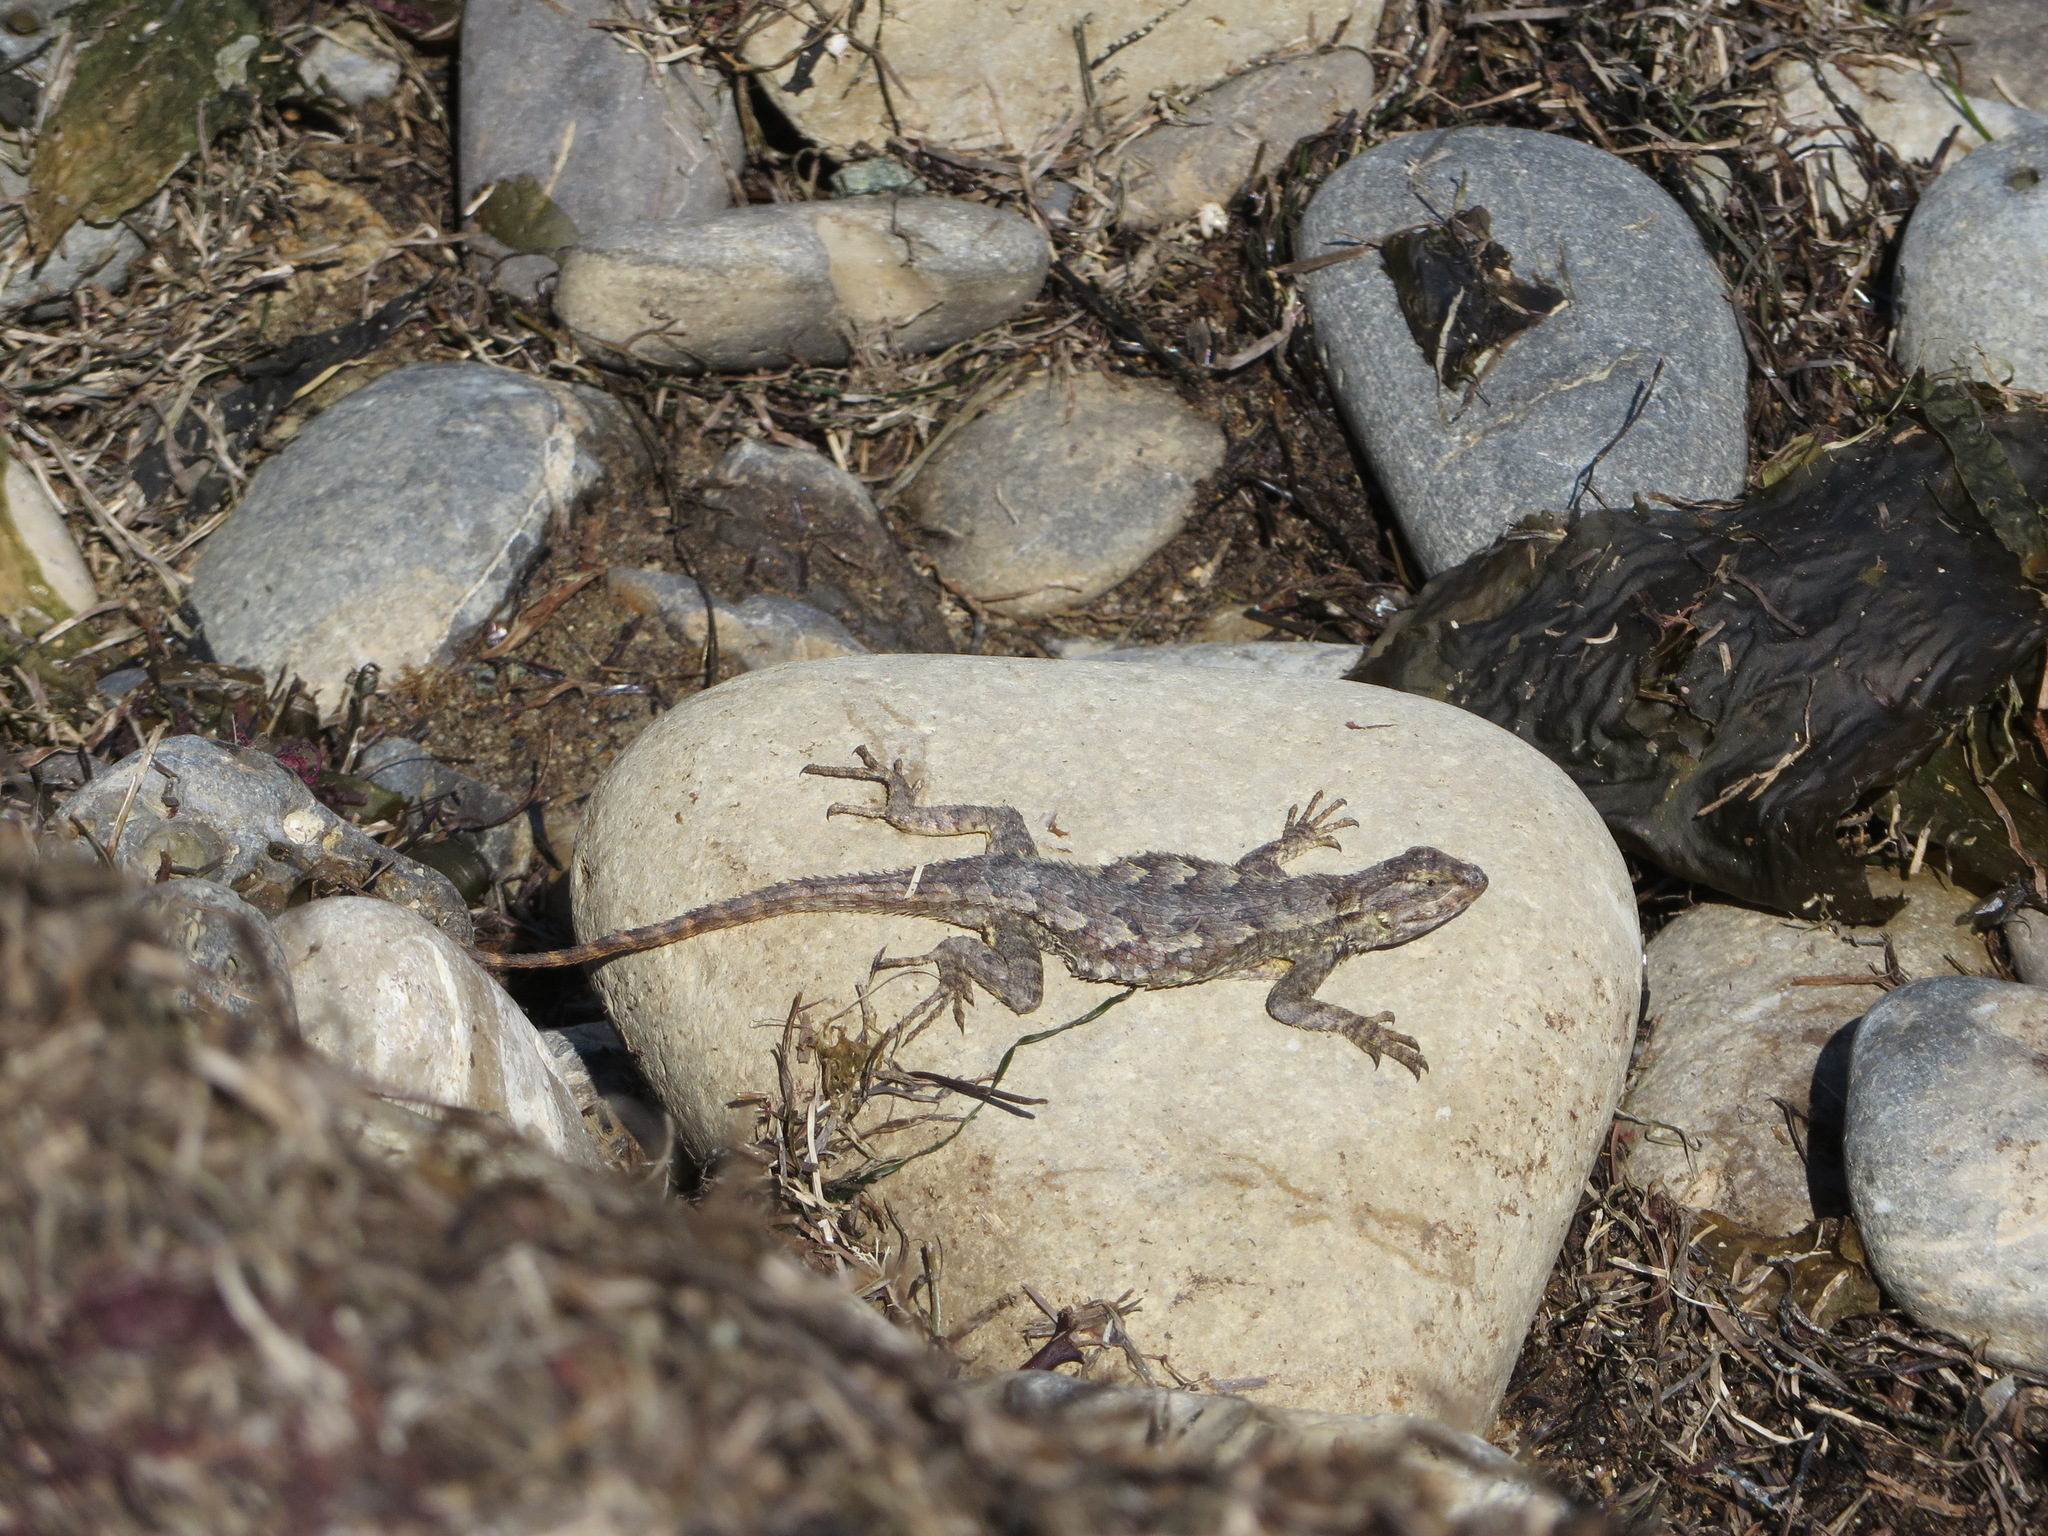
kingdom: Animalia
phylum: Chordata
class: Squamata
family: Phrynosomatidae
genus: Sceloporus
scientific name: Sceloporus occidentalis
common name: Western fence lizard
